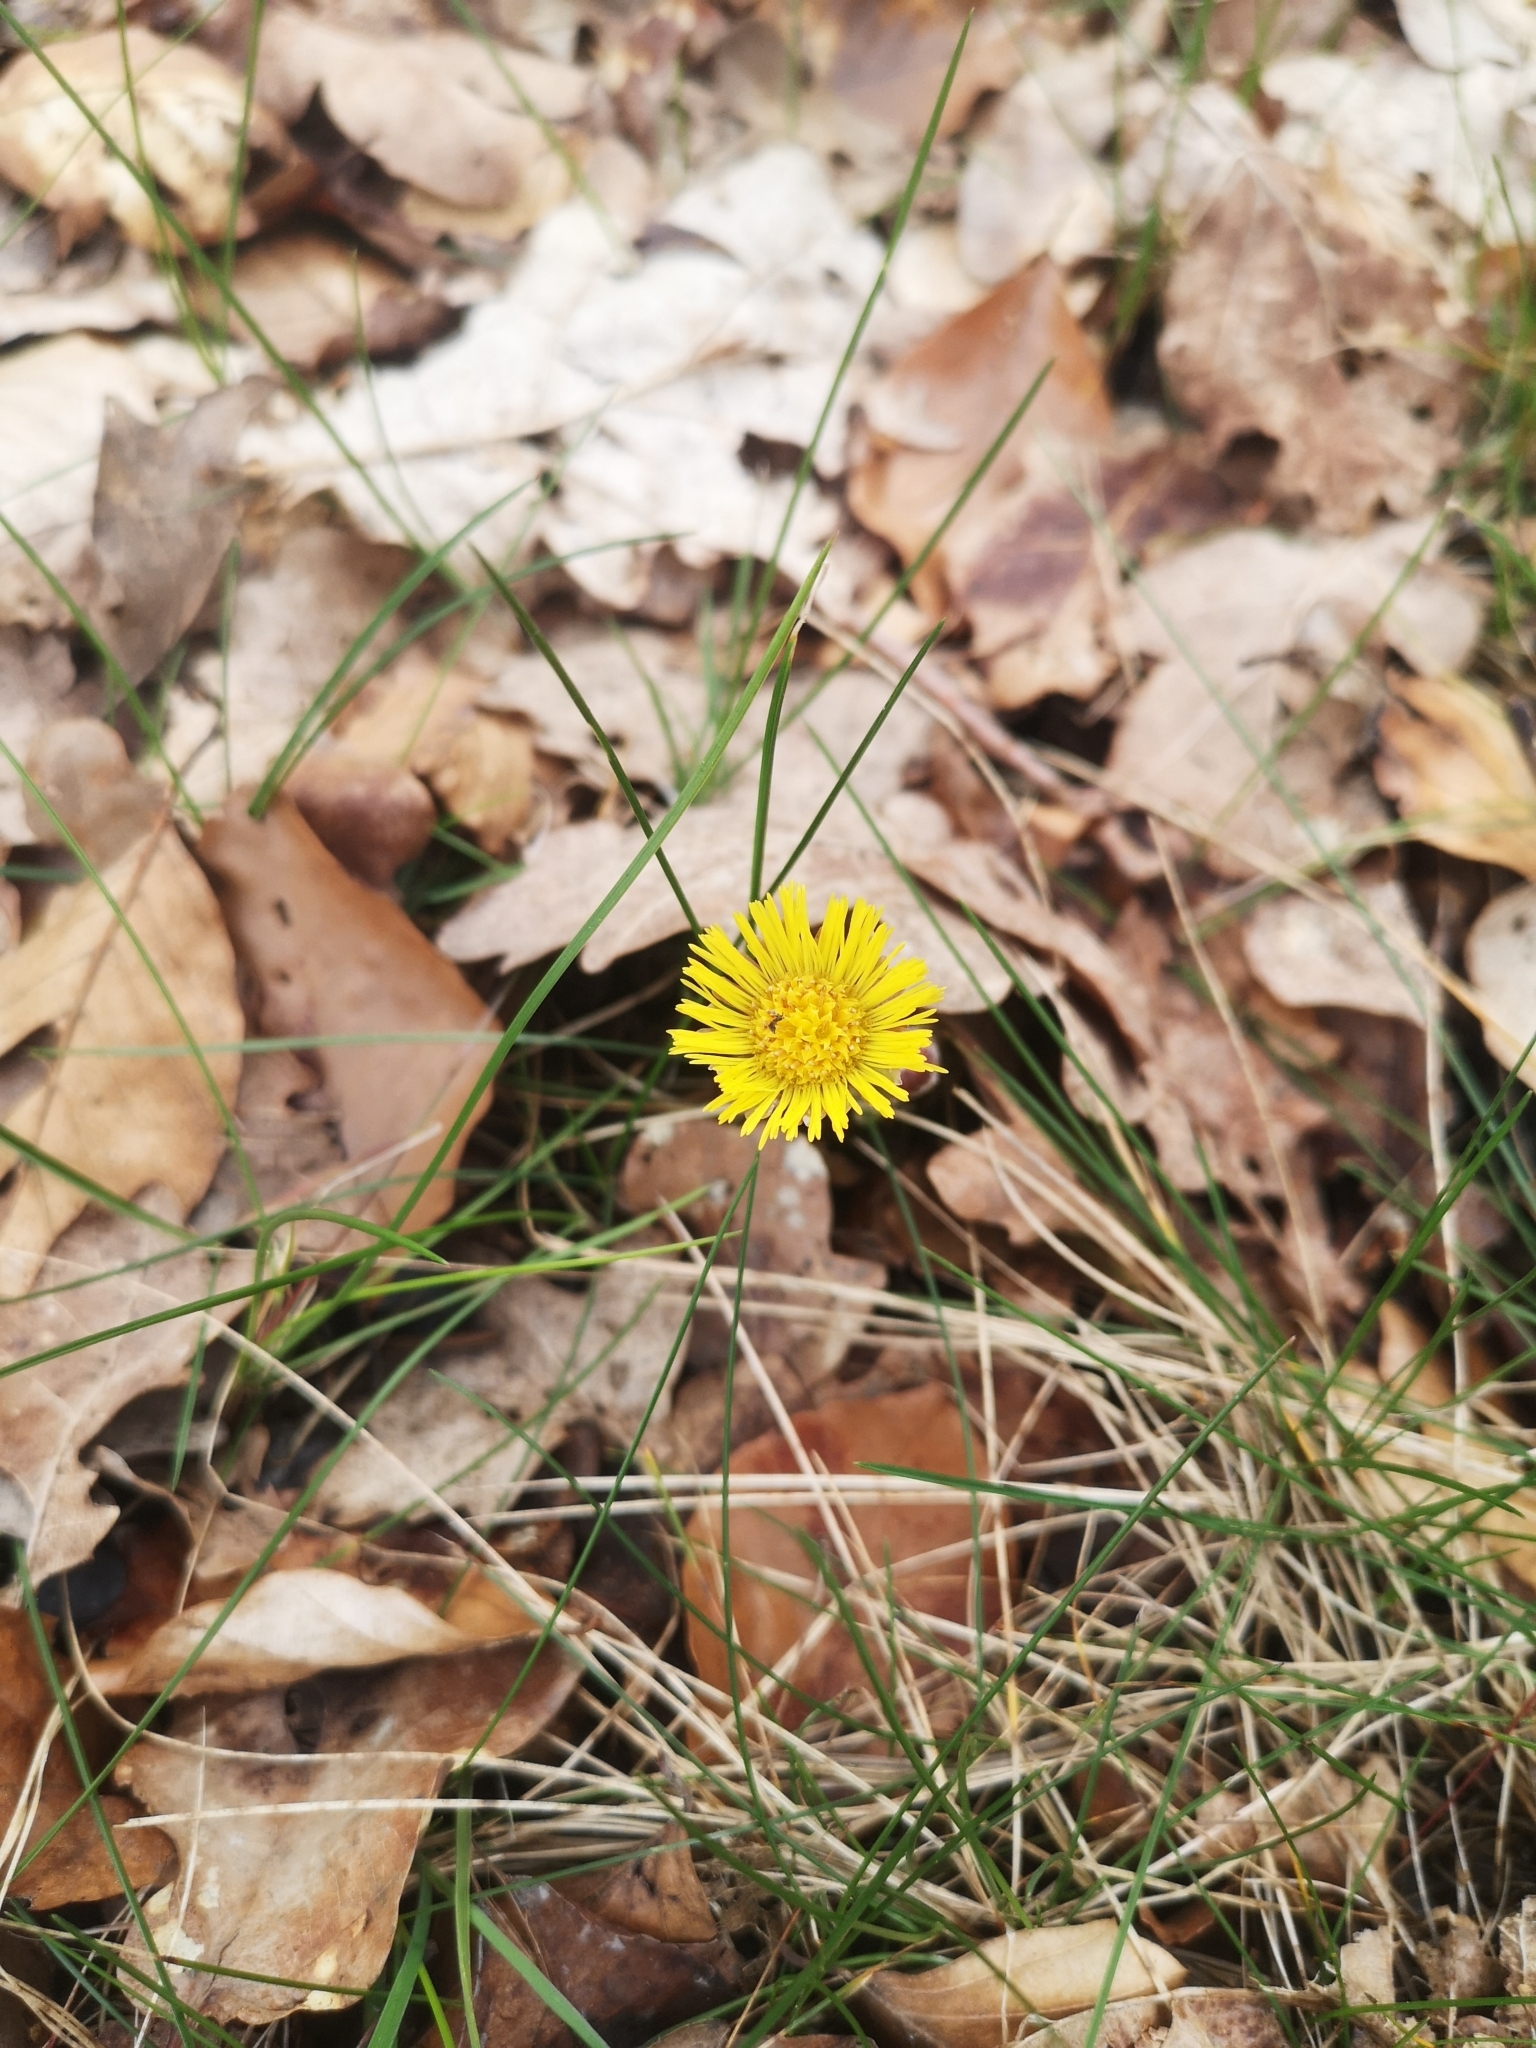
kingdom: Plantae
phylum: Tracheophyta
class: Magnoliopsida
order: Asterales
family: Asteraceae
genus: Tussilago
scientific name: Tussilago farfara
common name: Coltsfoot
